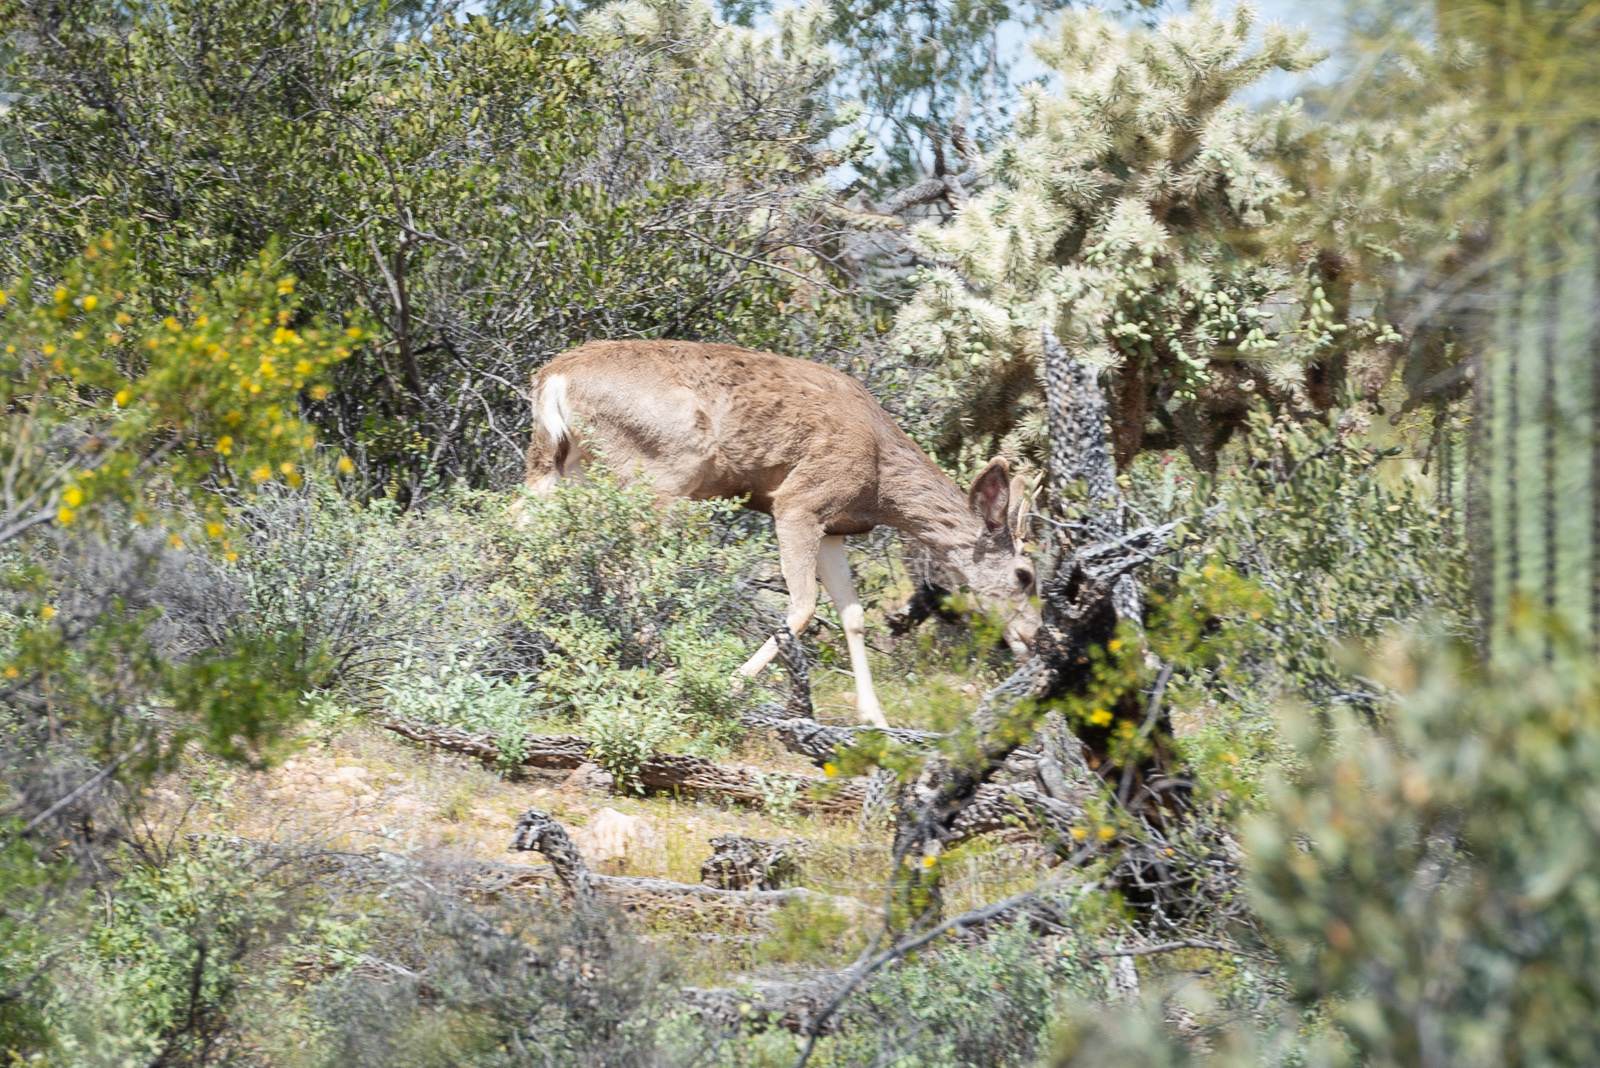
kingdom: Animalia
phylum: Chordata
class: Mammalia
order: Artiodactyla
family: Cervidae
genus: Odocoileus
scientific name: Odocoileus hemionus
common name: Mule deer
